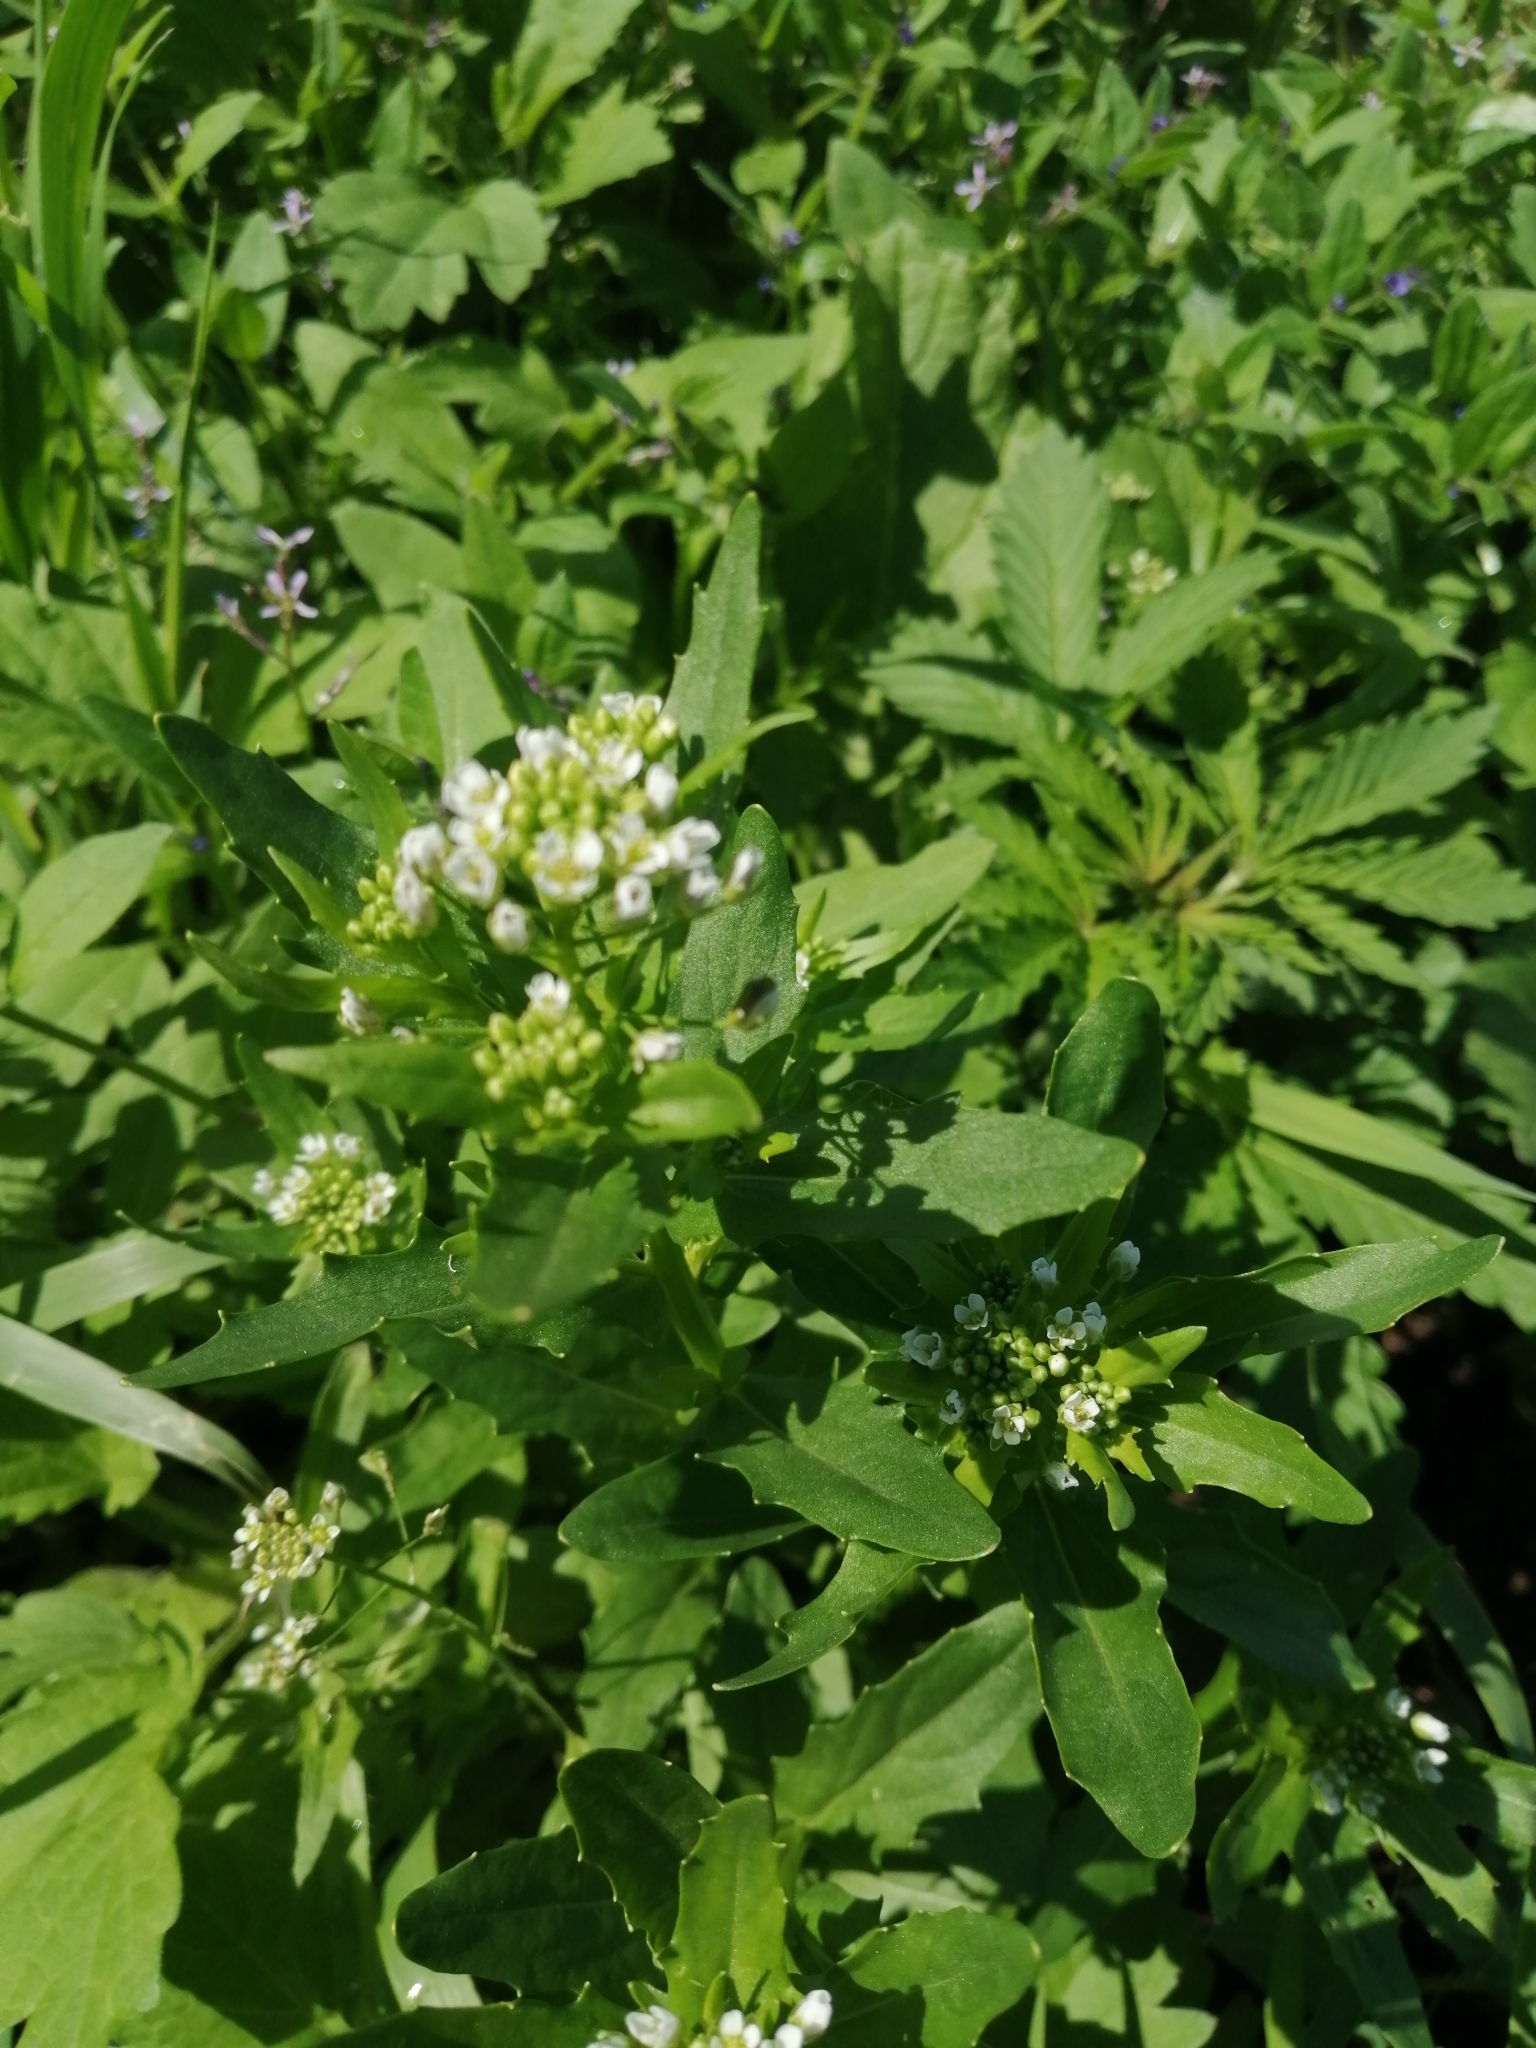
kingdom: Plantae
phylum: Tracheophyta
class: Magnoliopsida
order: Brassicales
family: Brassicaceae
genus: Thlaspi
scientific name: Thlaspi arvense
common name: Field pennycress
